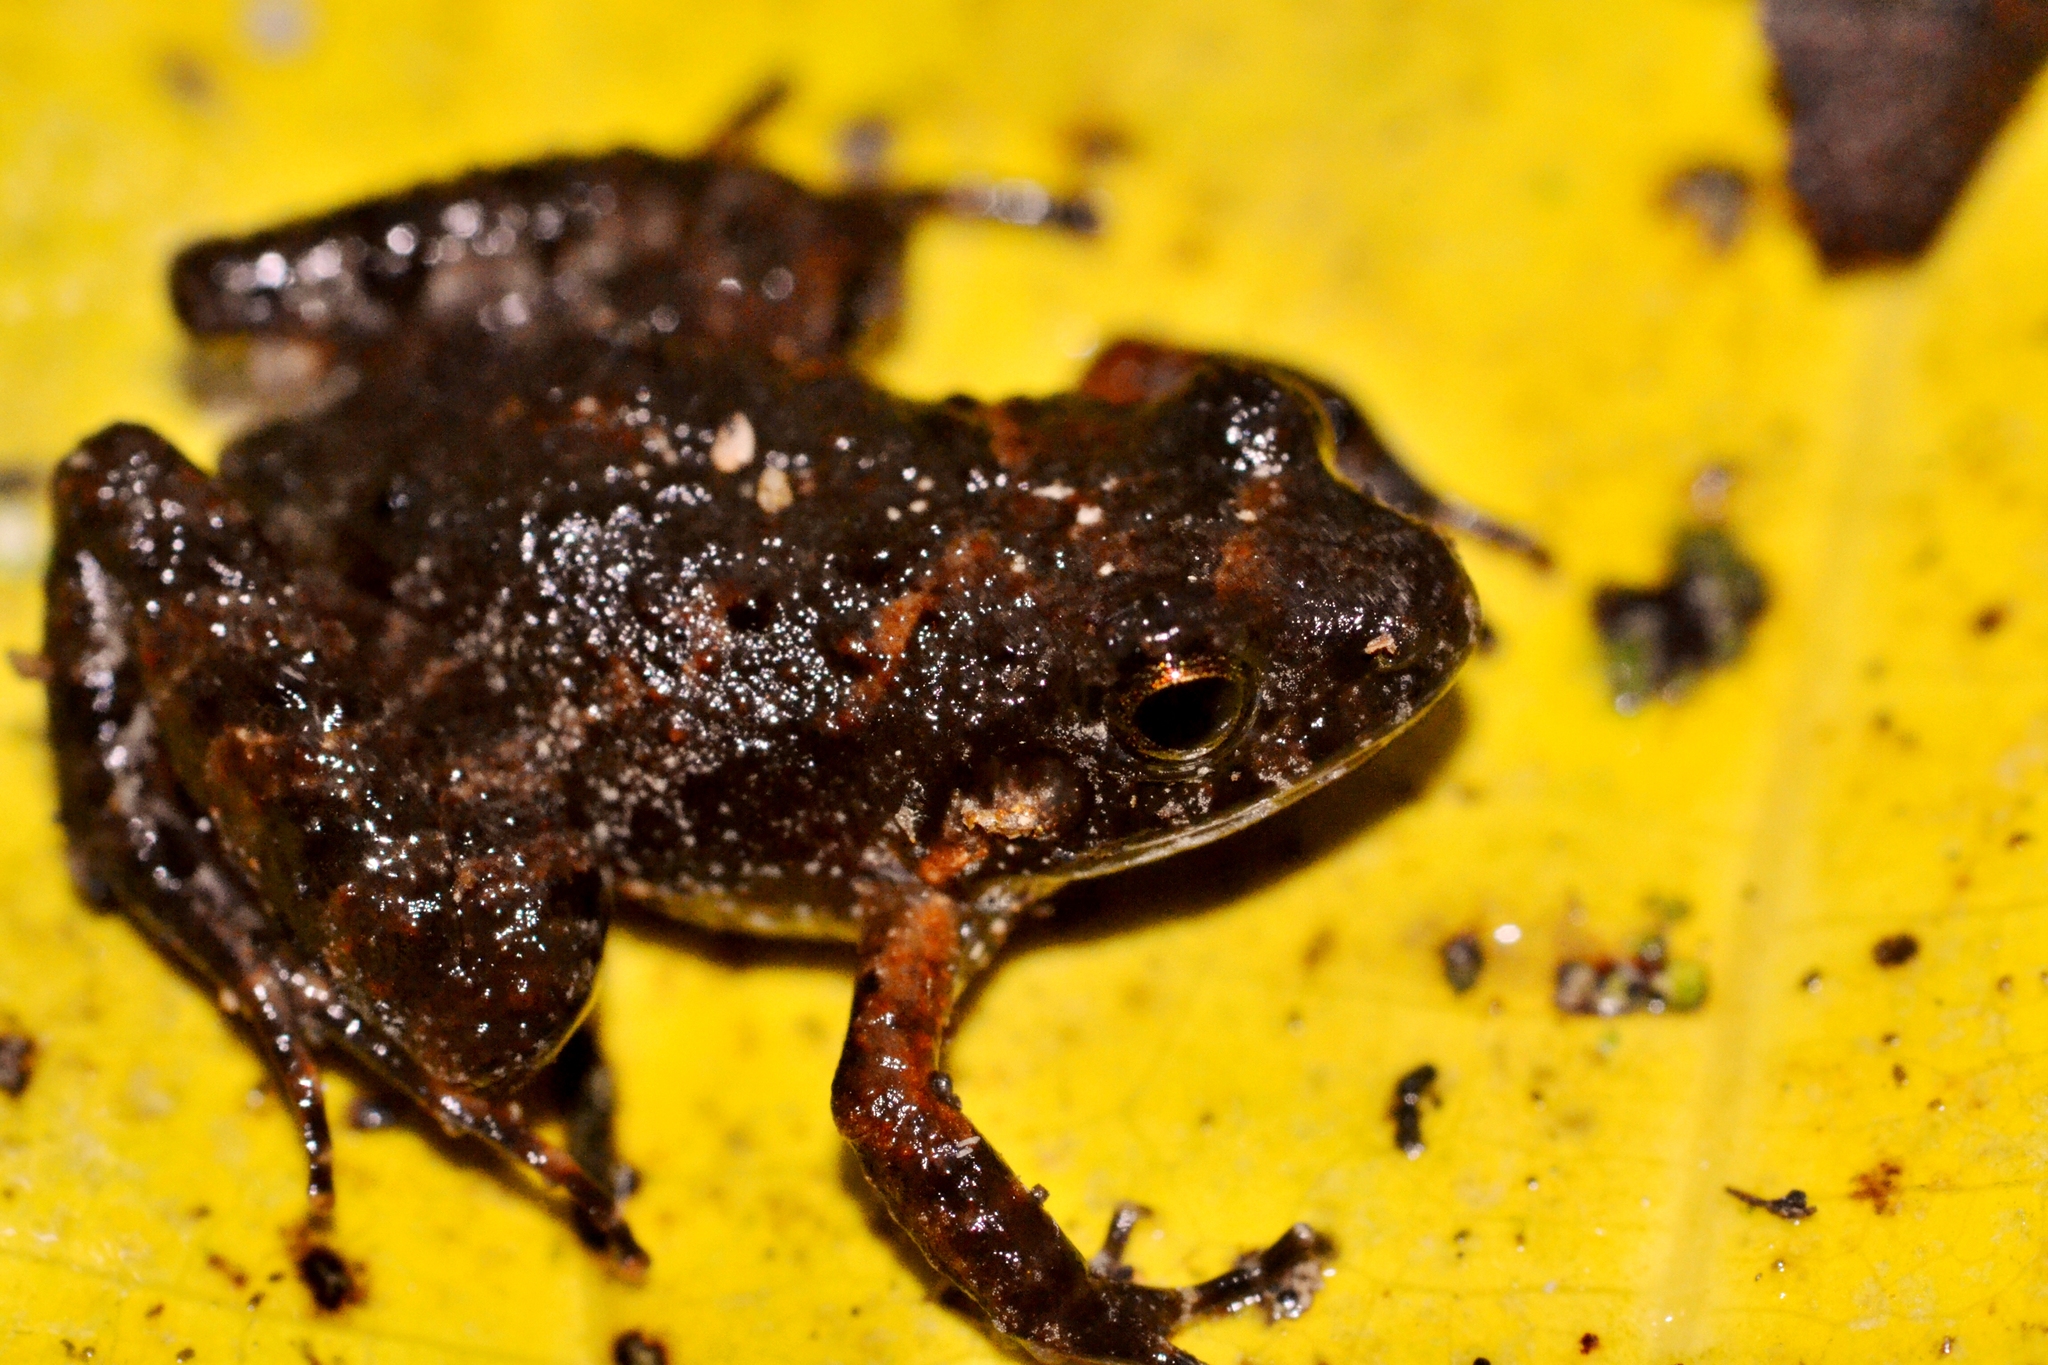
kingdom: Animalia
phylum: Chordata
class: Amphibia
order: Anura
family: Craugastoridae
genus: Craugastor
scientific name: Craugastor pygmaeus
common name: Pygmy free-fingered frog
